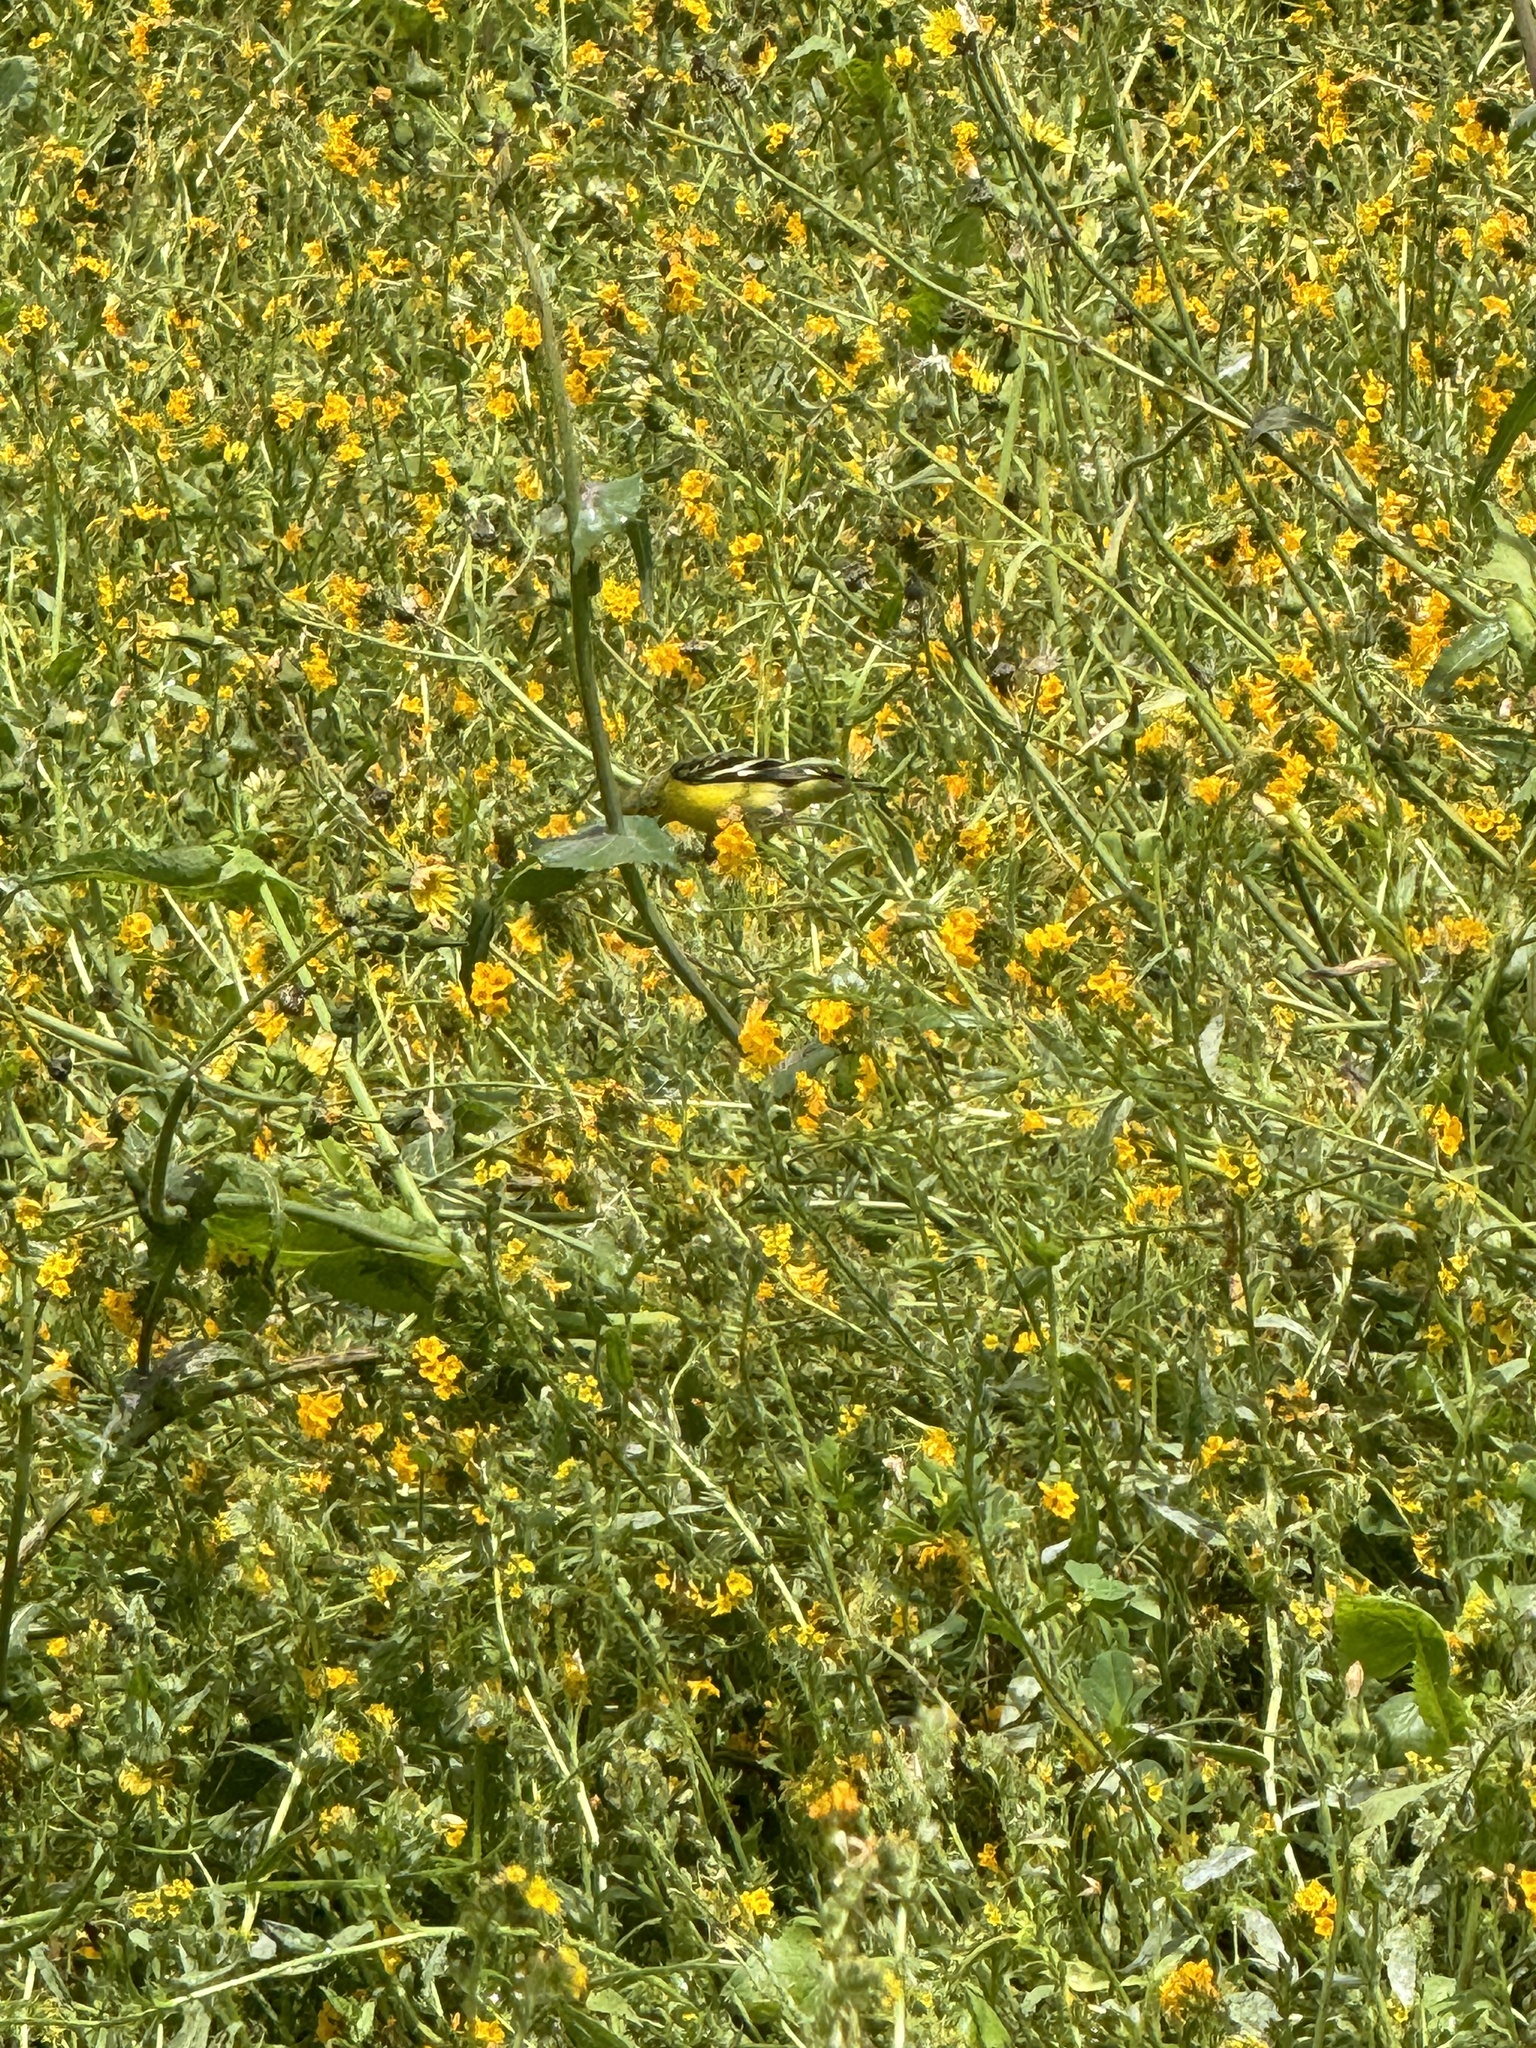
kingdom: Animalia
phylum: Chordata
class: Aves
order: Passeriformes
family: Fringillidae
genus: Spinus
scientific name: Spinus psaltria
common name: Lesser goldfinch
